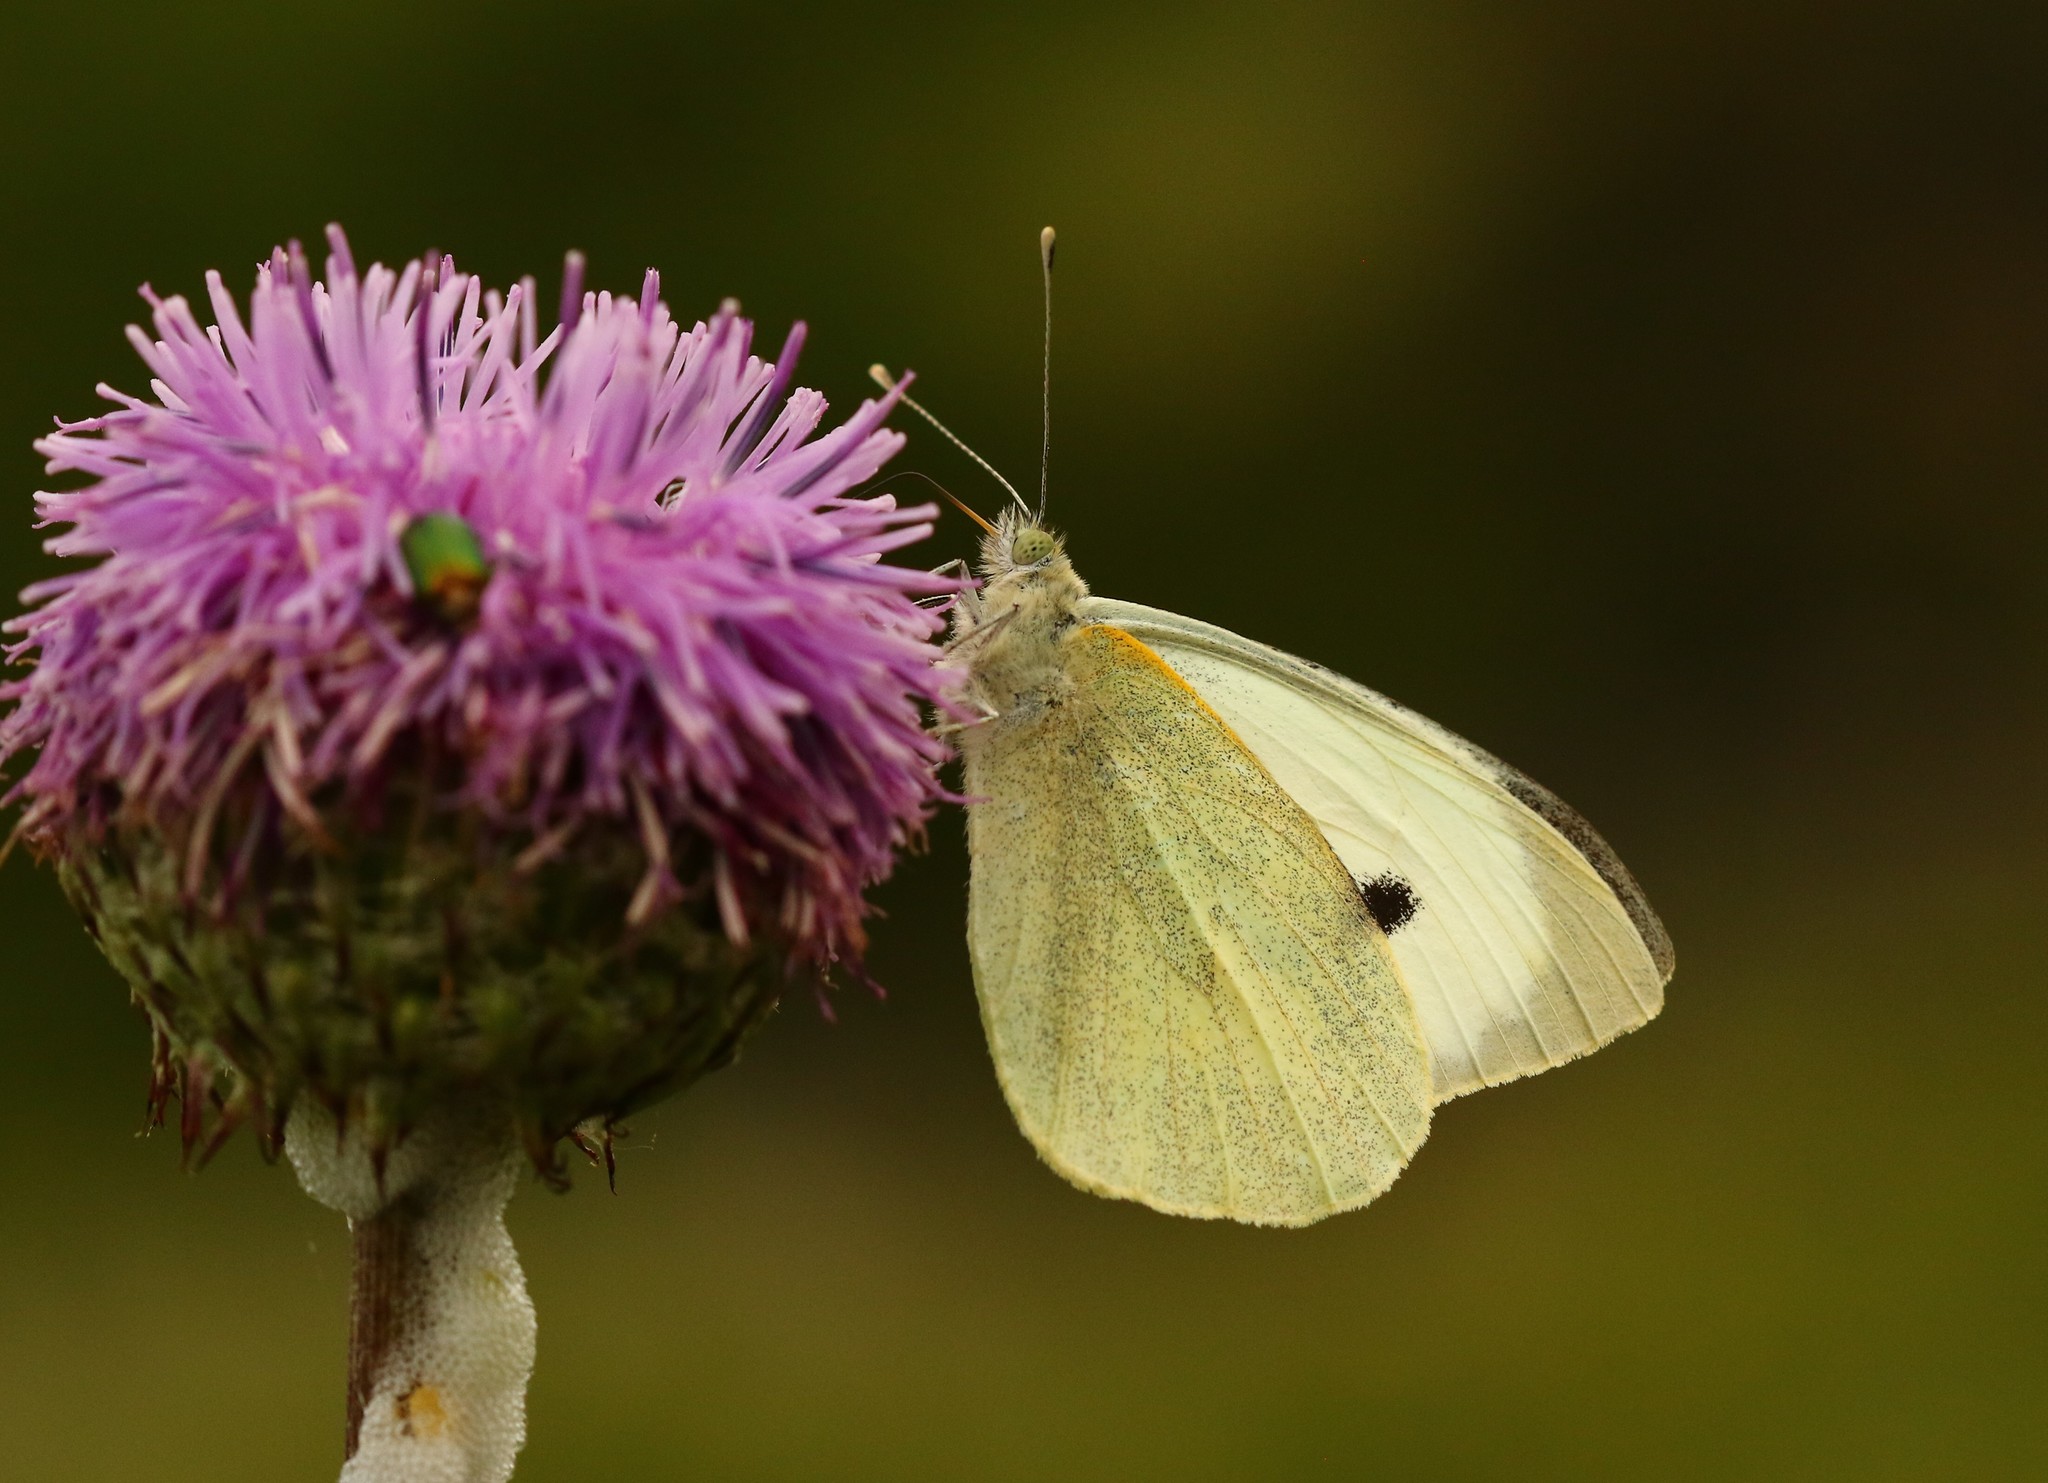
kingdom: Animalia
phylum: Arthropoda
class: Insecta
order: Lepidoptera
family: Pieridae
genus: Pieris
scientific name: Pieris brassicae
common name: Large white
